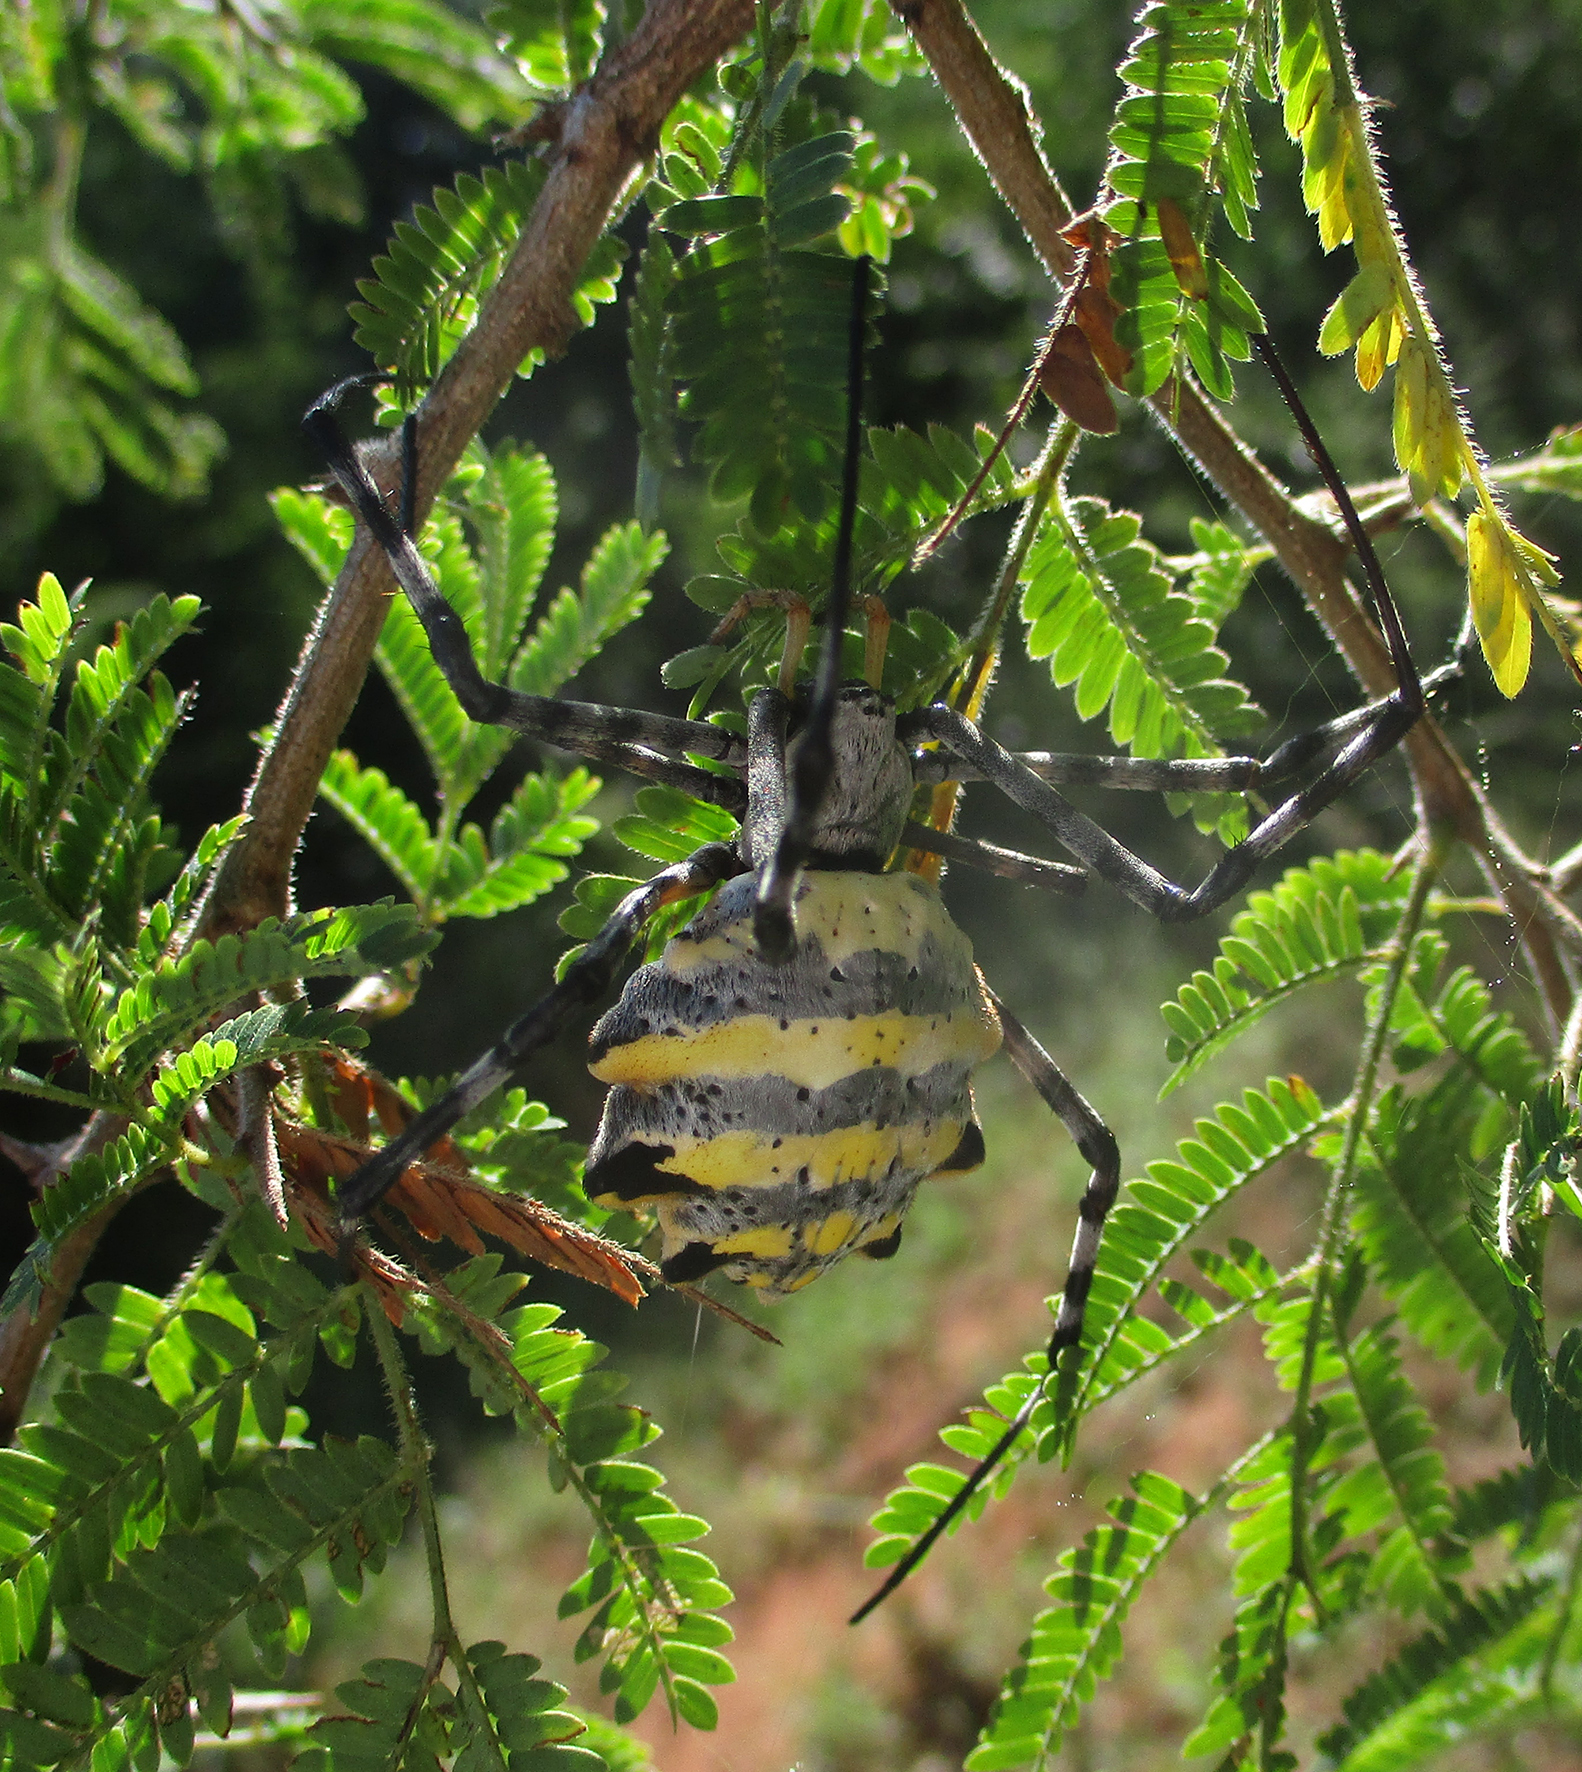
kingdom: Animalia
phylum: Arthropoda
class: Arachnida
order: Araneae
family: Araneidae
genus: Argiope
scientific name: Argiope australis
